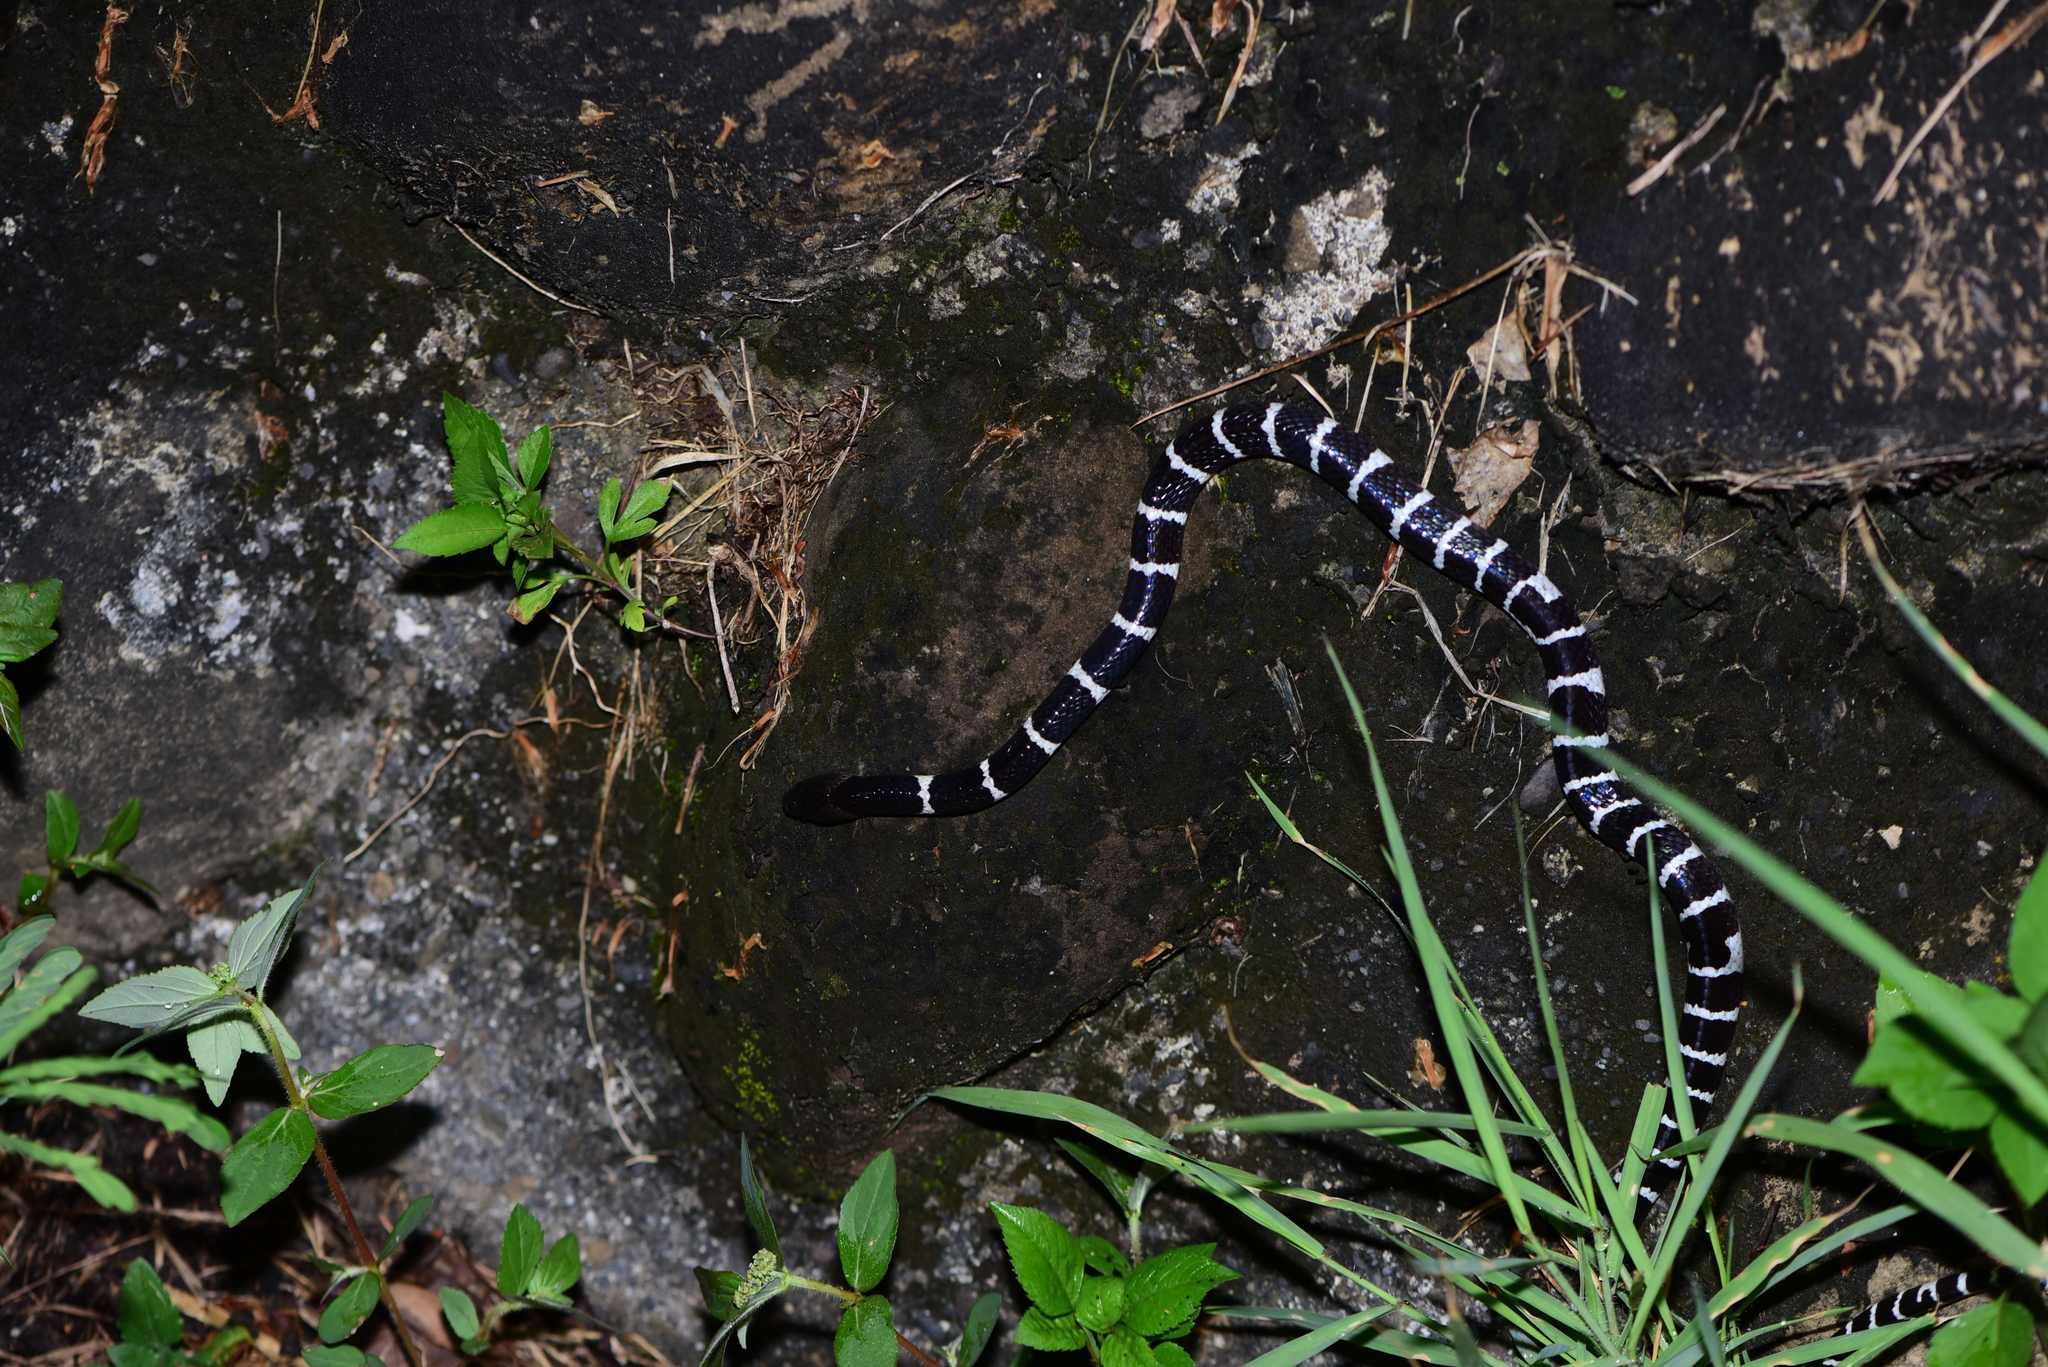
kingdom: Animalia
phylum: Chordata
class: Squamata
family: Elapidae
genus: Bungarus
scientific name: Bungarus multicinctus
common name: Many-banded krait
